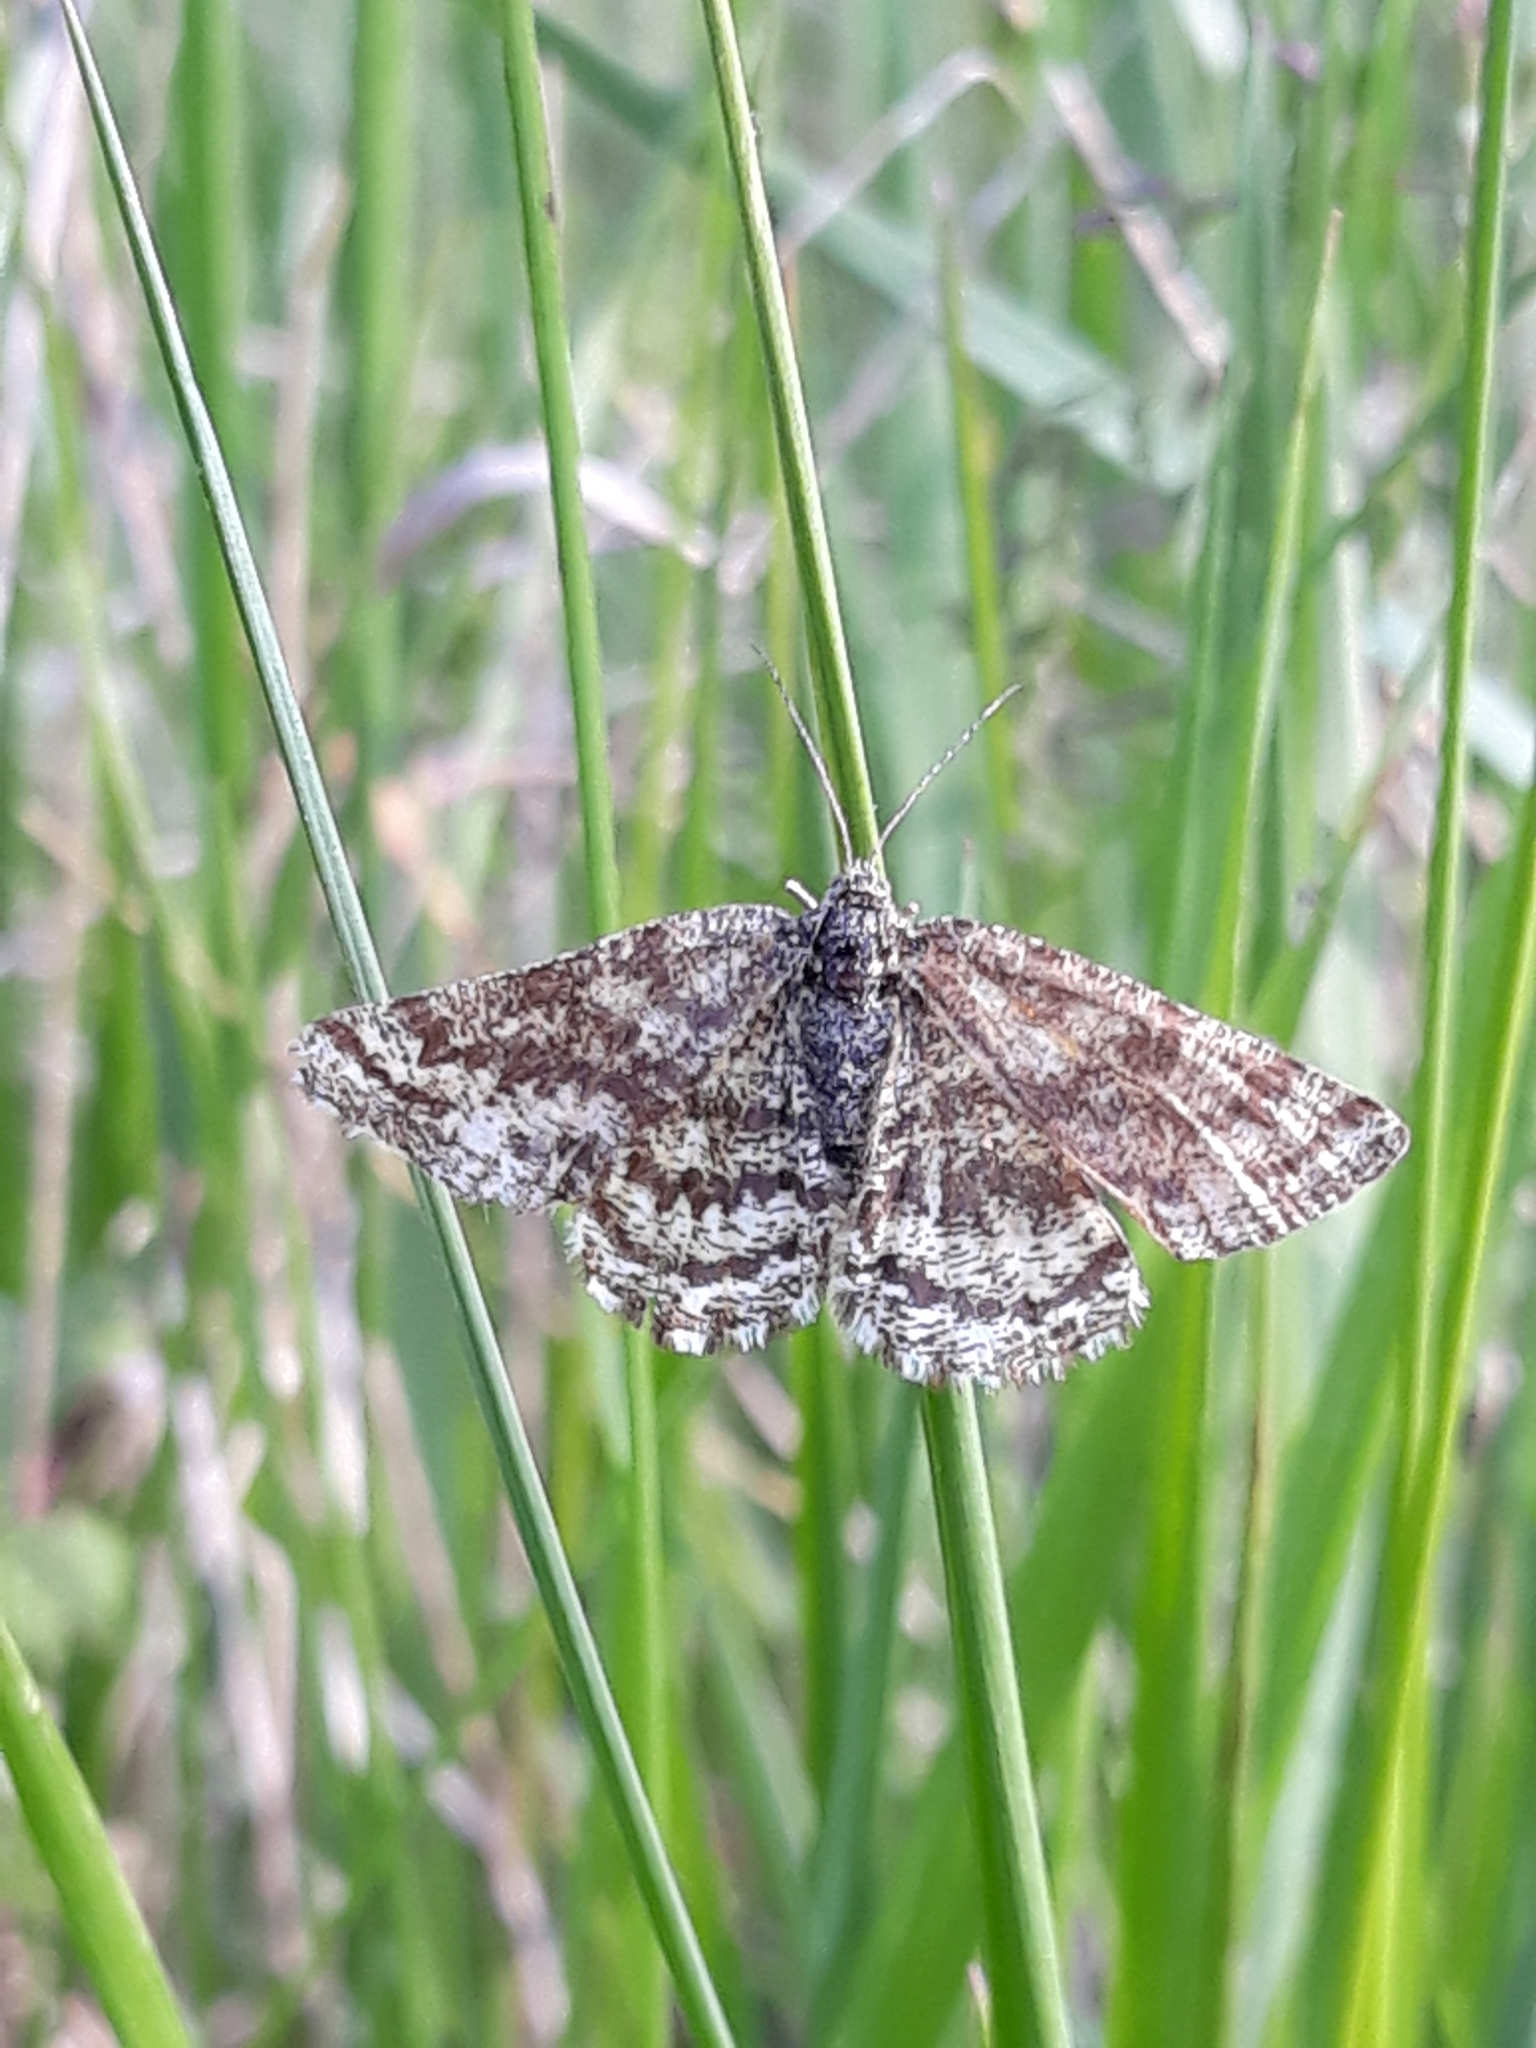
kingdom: Animalia
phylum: Arthropoda
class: Insecta
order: Lepidoptera
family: Geometridae
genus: Ematurga
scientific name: Ematurga atomaria
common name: Common heath
